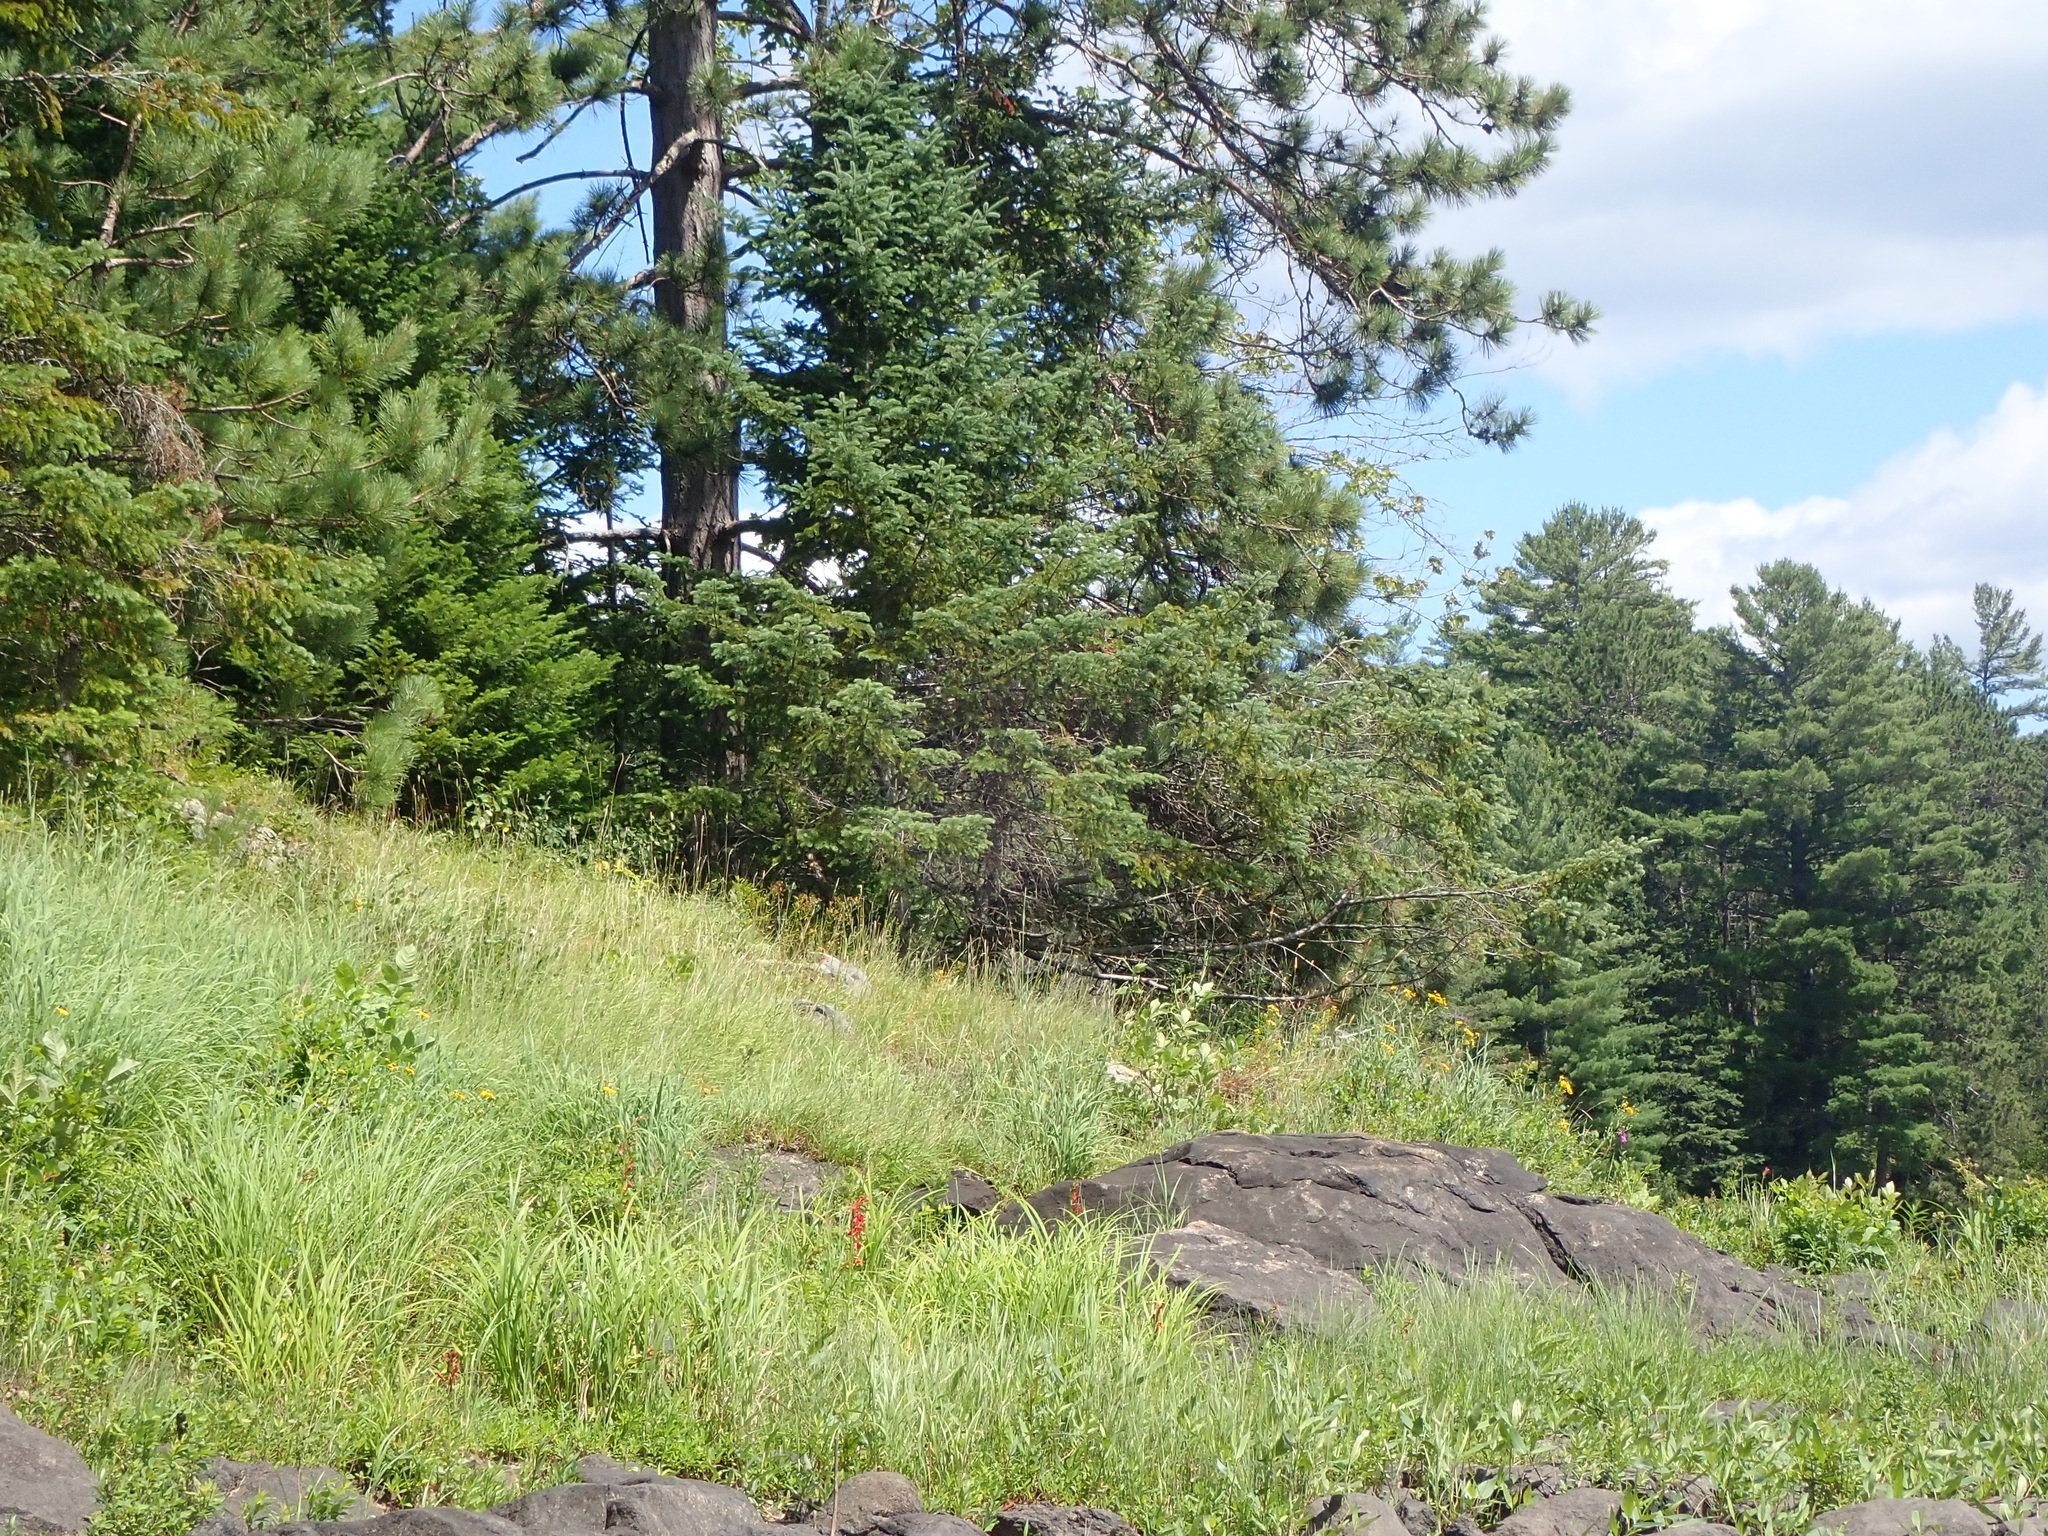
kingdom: Plantae
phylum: Tracheophyta
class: Liliopsida
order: Poales
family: Poaceae
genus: Andropogon
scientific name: Andropogon gerardi
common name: Big bluestem
